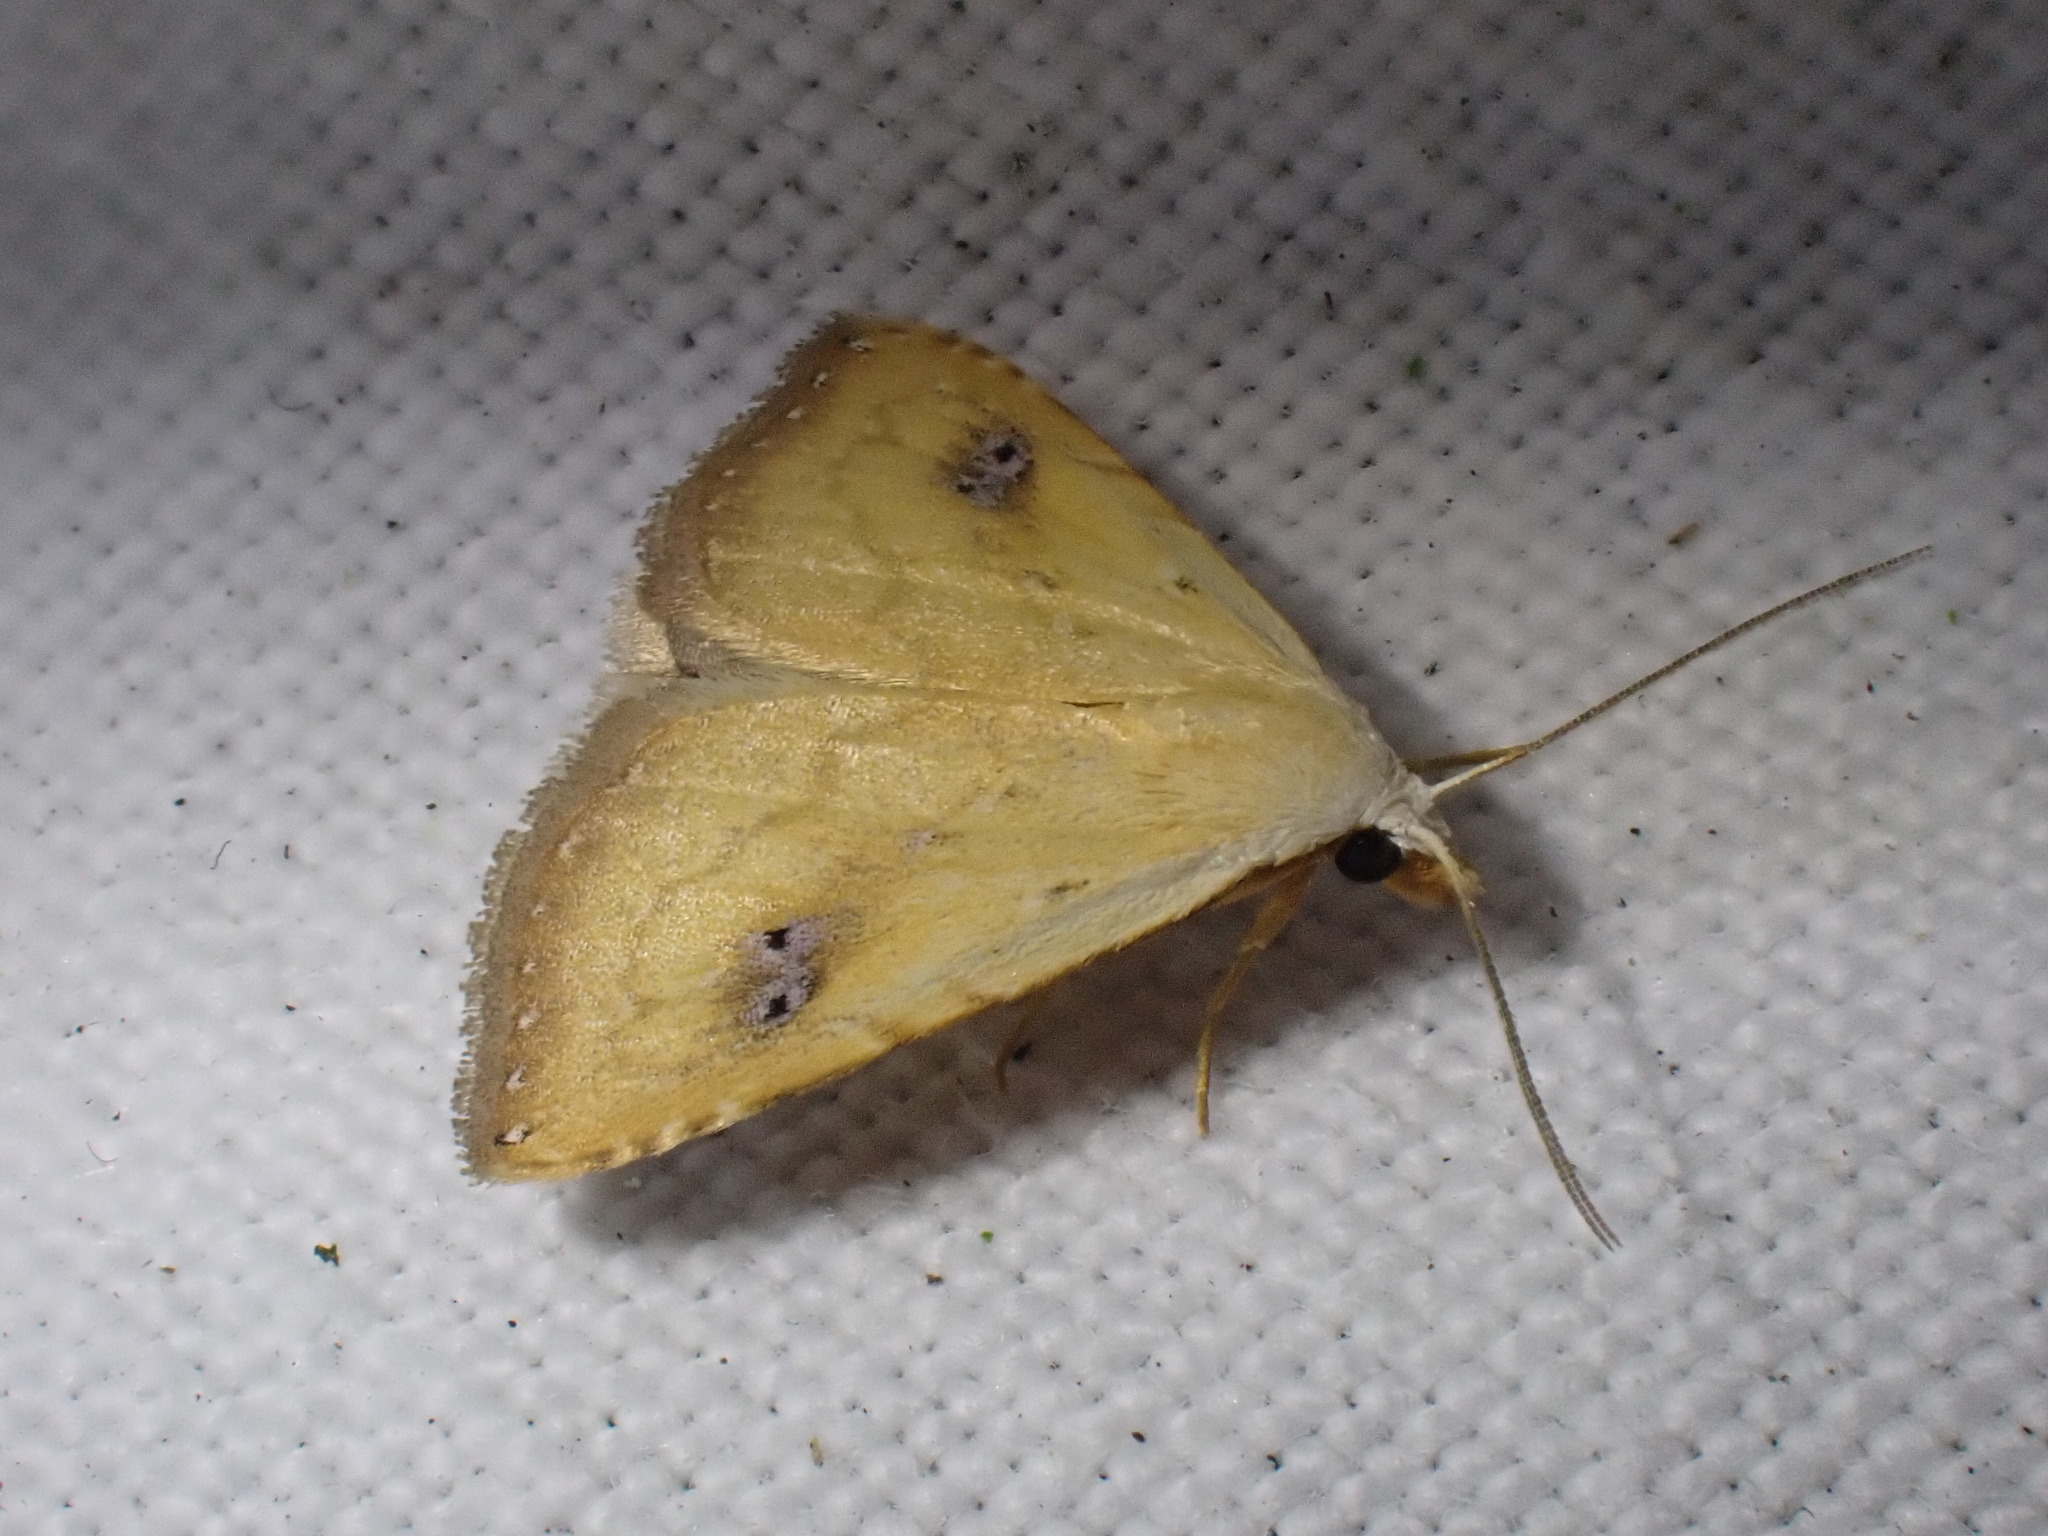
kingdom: Animalia
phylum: Arthropoda
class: Insecta
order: Lepidoptera
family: Erebidae
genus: Rivula
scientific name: Rivula sericealis
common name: Straw dot
